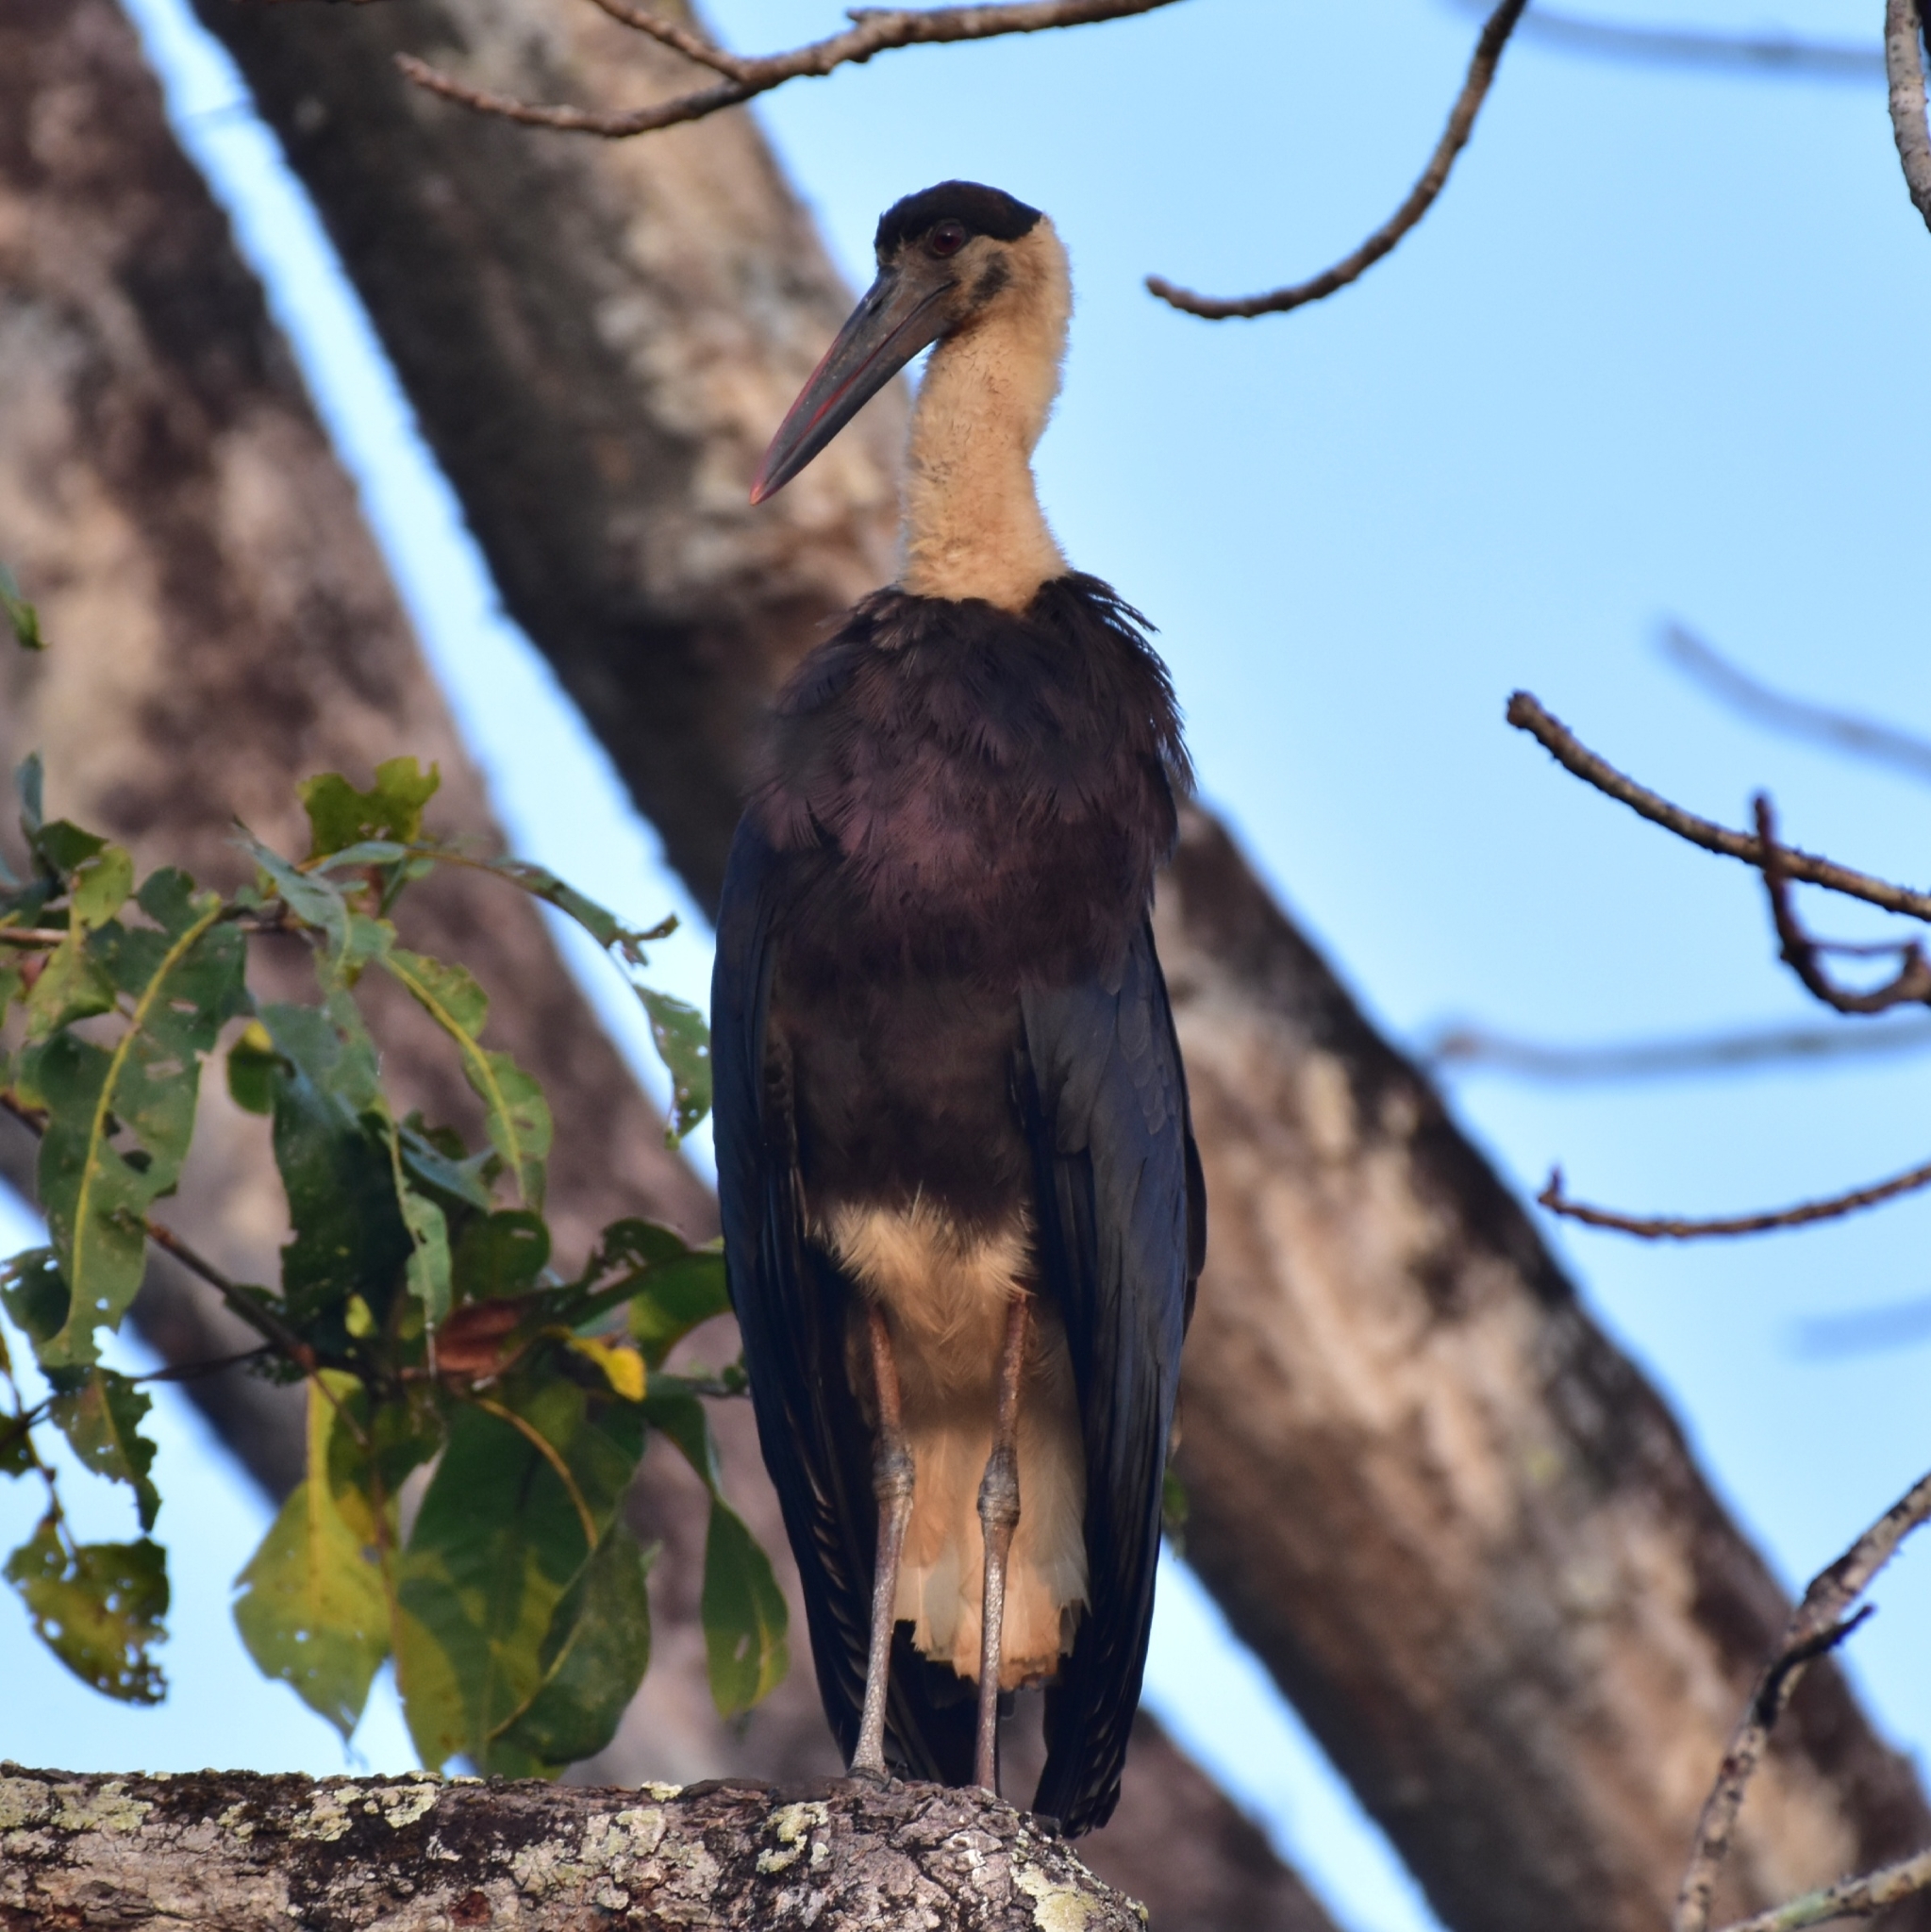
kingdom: Animalia
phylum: Chordata
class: Aves
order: Ciconiiformes
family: Ciconiidae
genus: Ciconia
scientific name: Ciconia episcopus
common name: Woolly-necked stork
